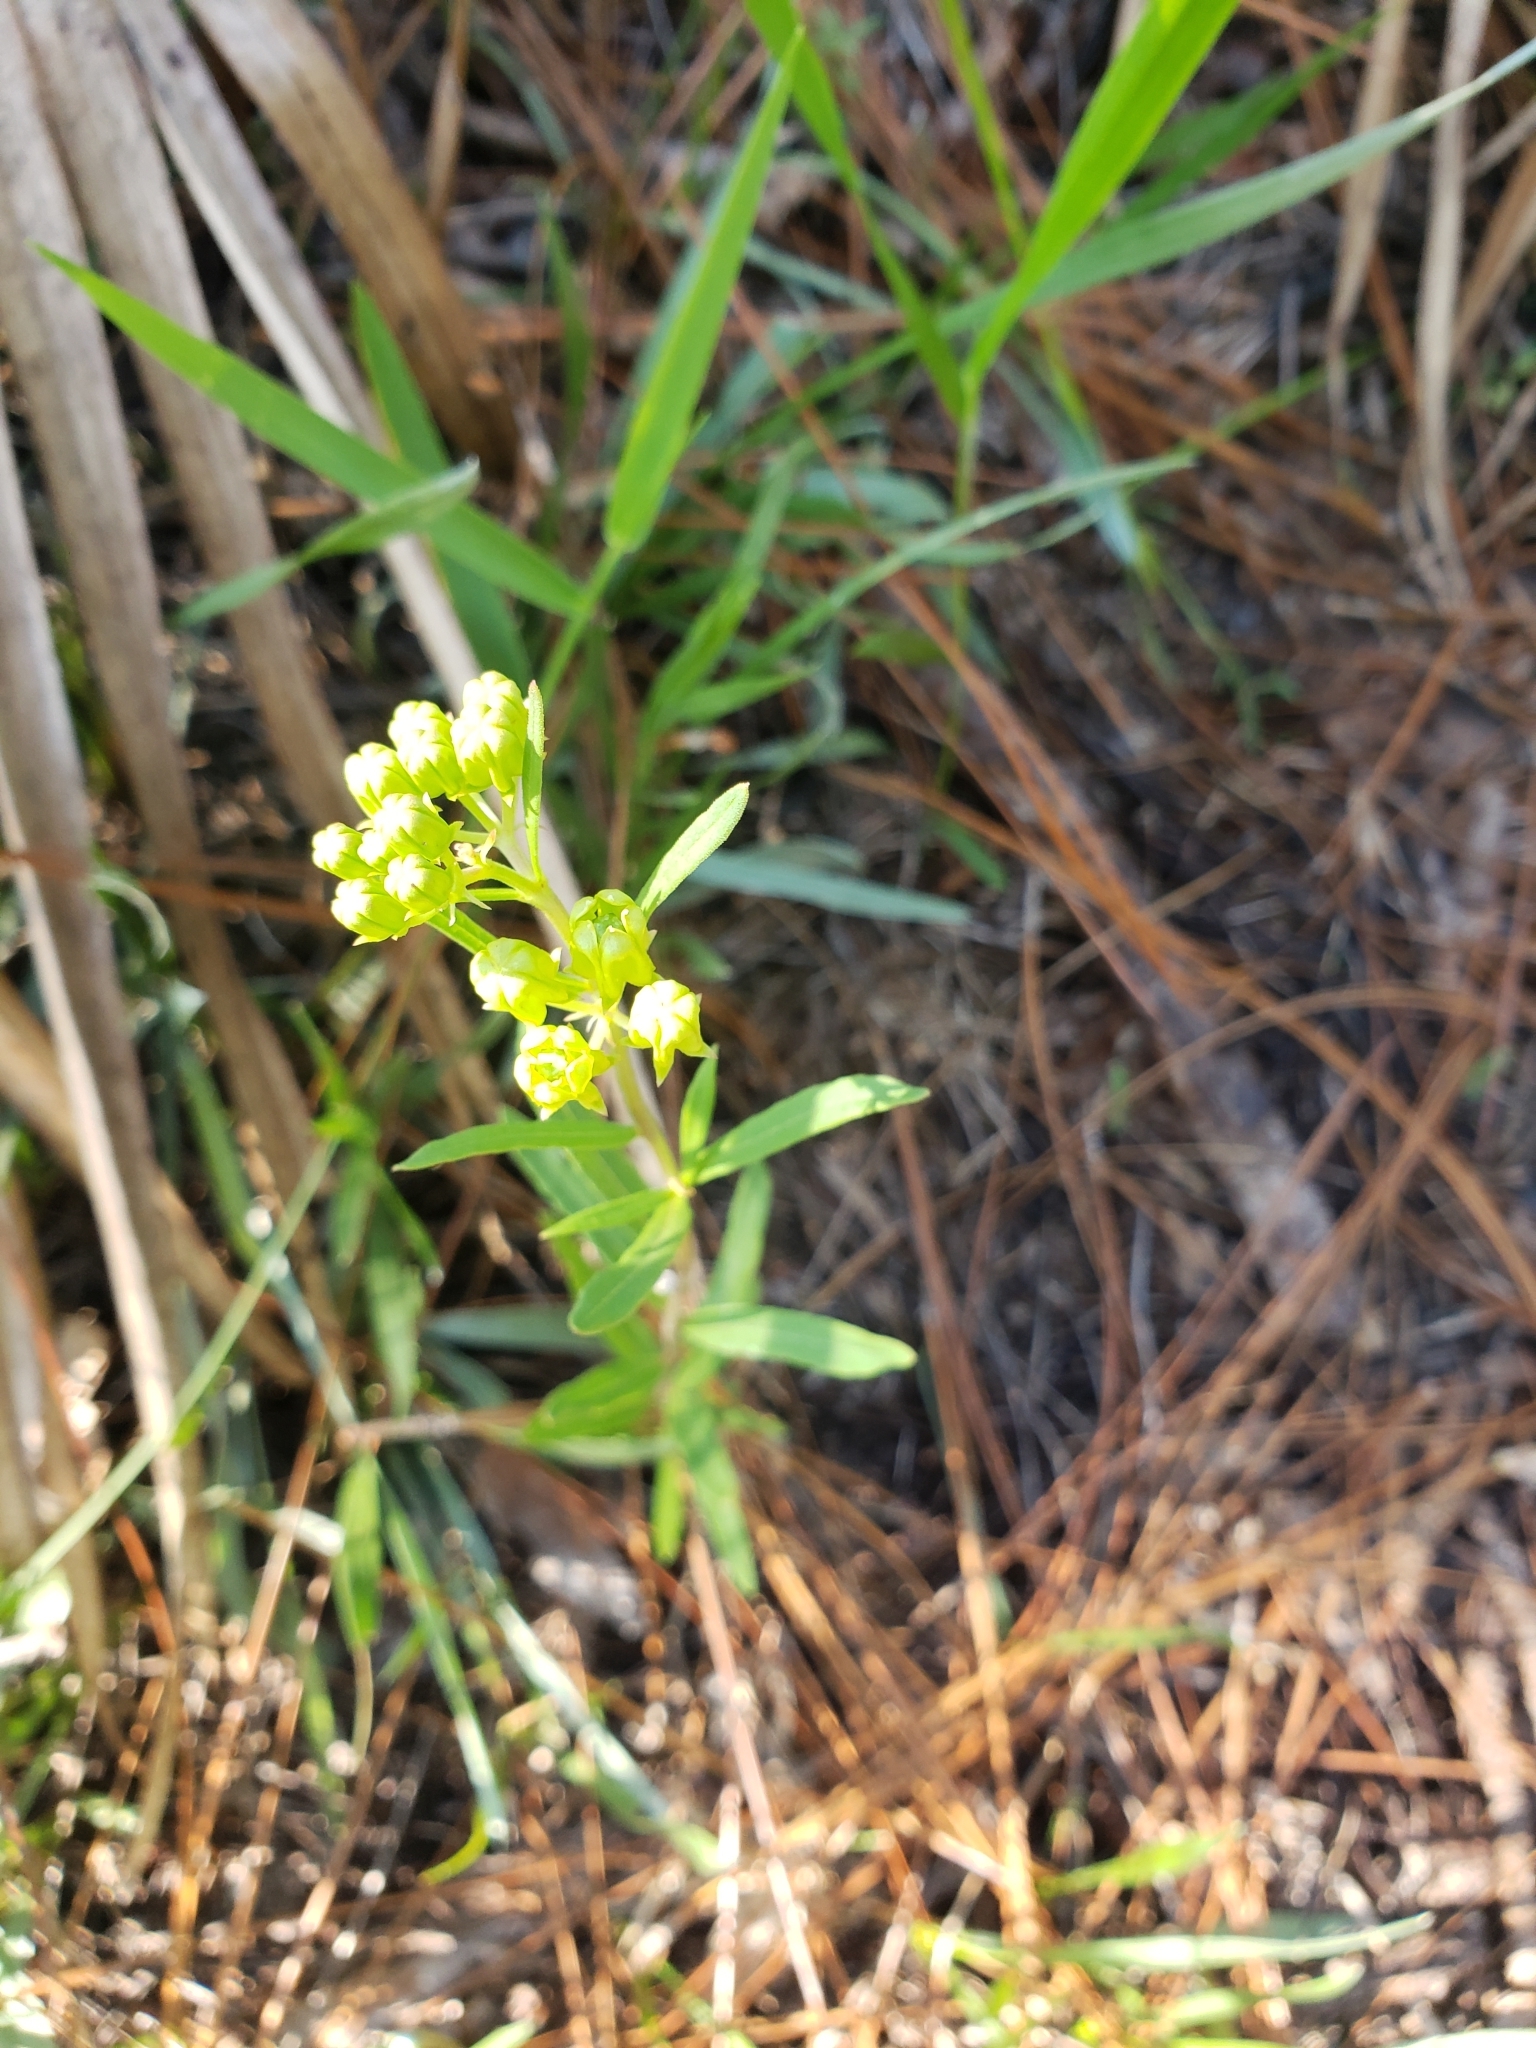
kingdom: Plantae
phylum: Tracheophyta
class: Magnoliopsida
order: Gentianales
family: Apocynaceae
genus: Asclepias
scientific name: Asclepias pedicellata
